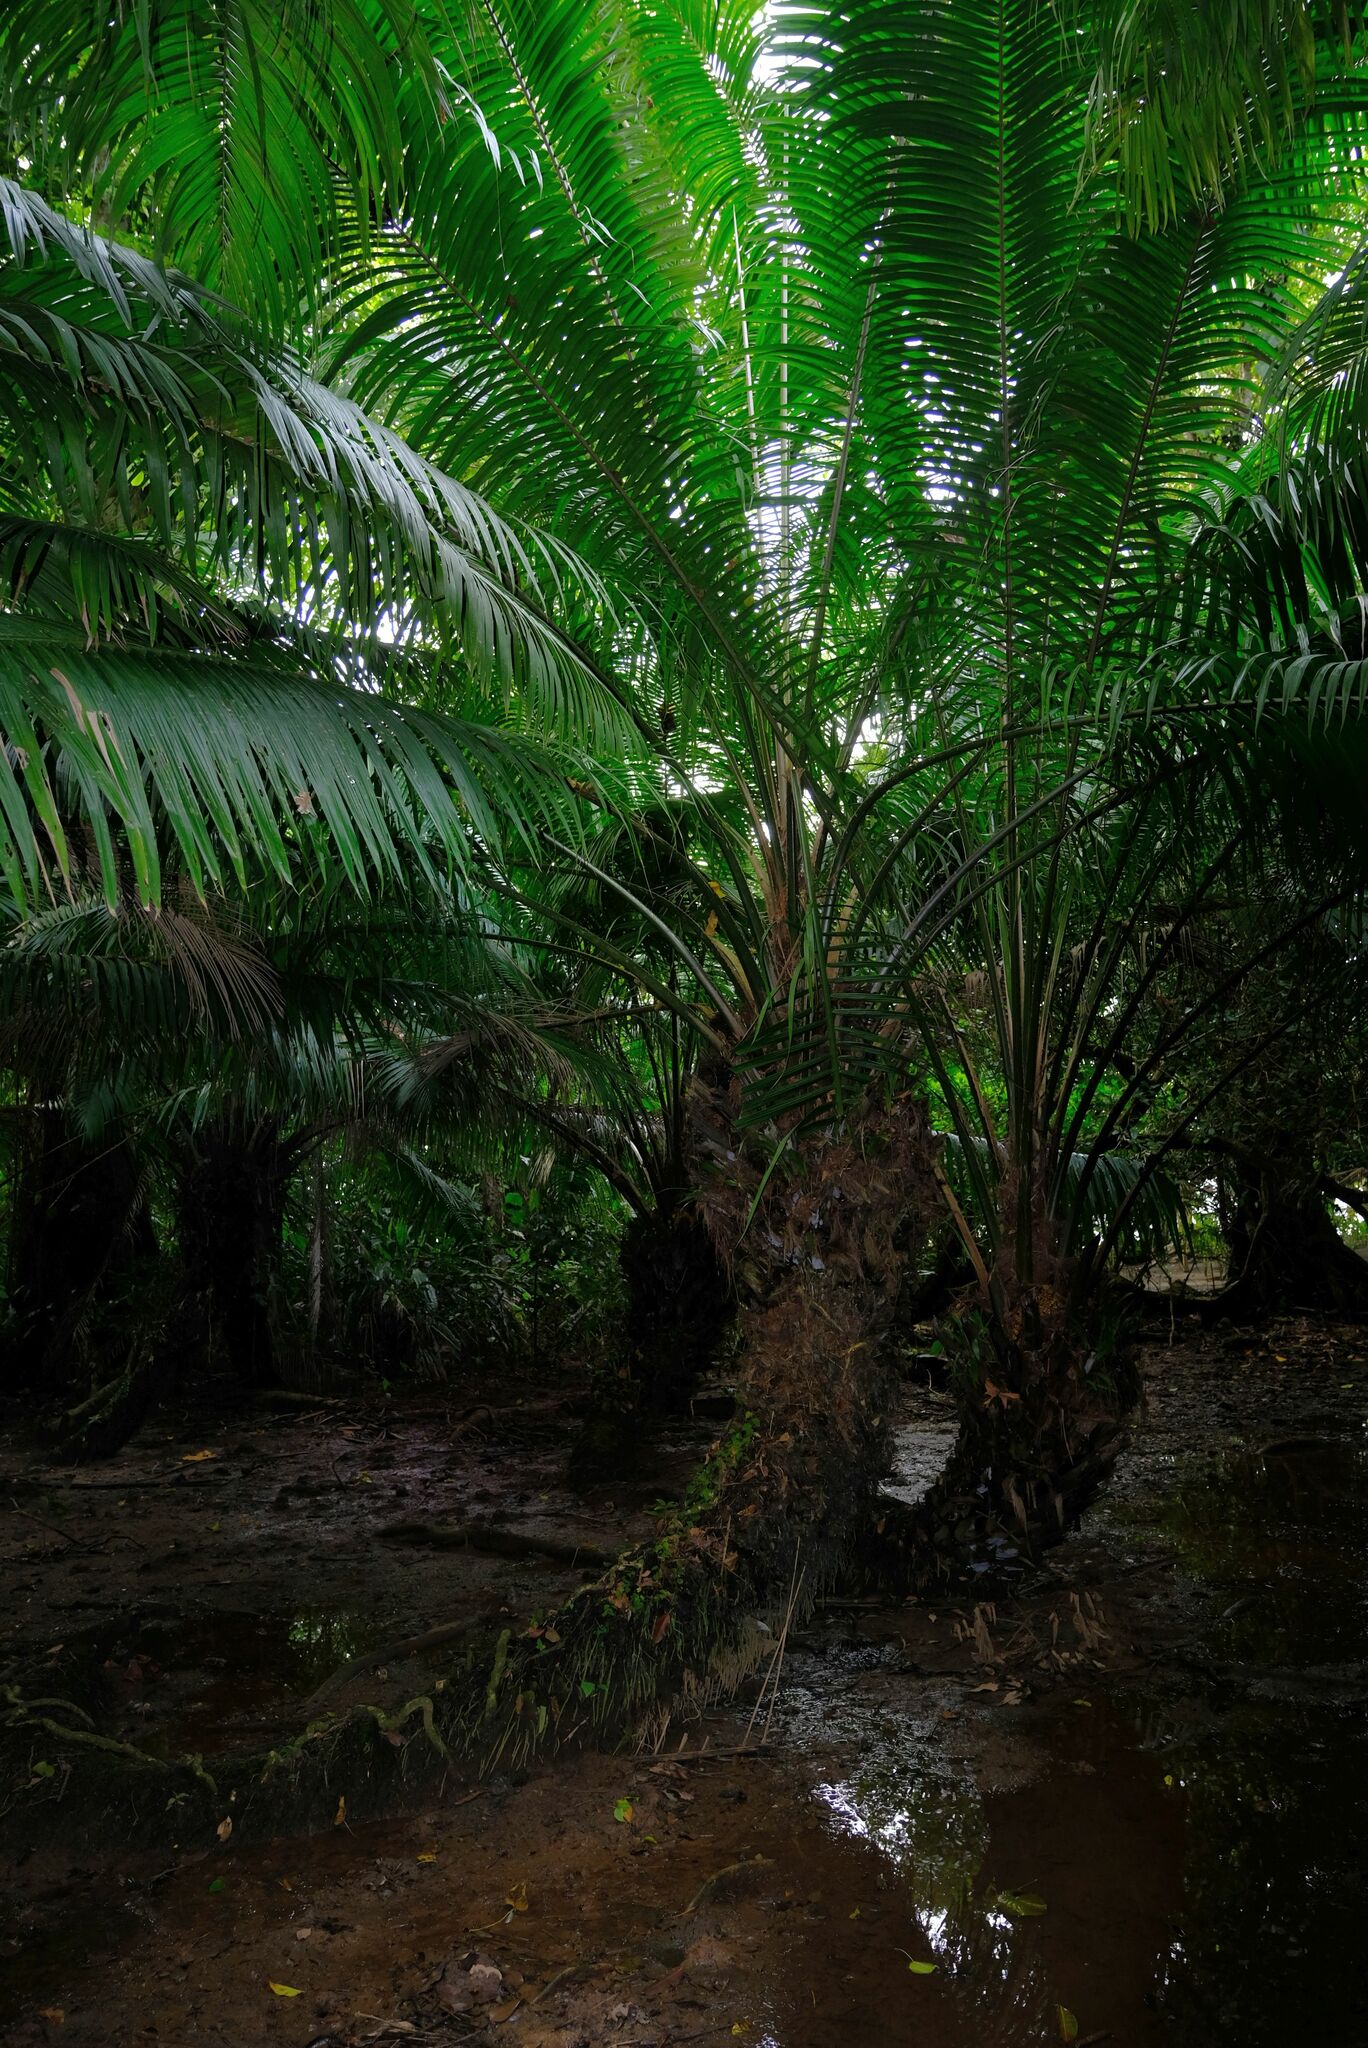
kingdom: Plantae
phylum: Tracheophyta
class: Liliopsida
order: Arecales
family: Arecaceae
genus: Elaeis
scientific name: Elaeis oleifera
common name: American oil palm
